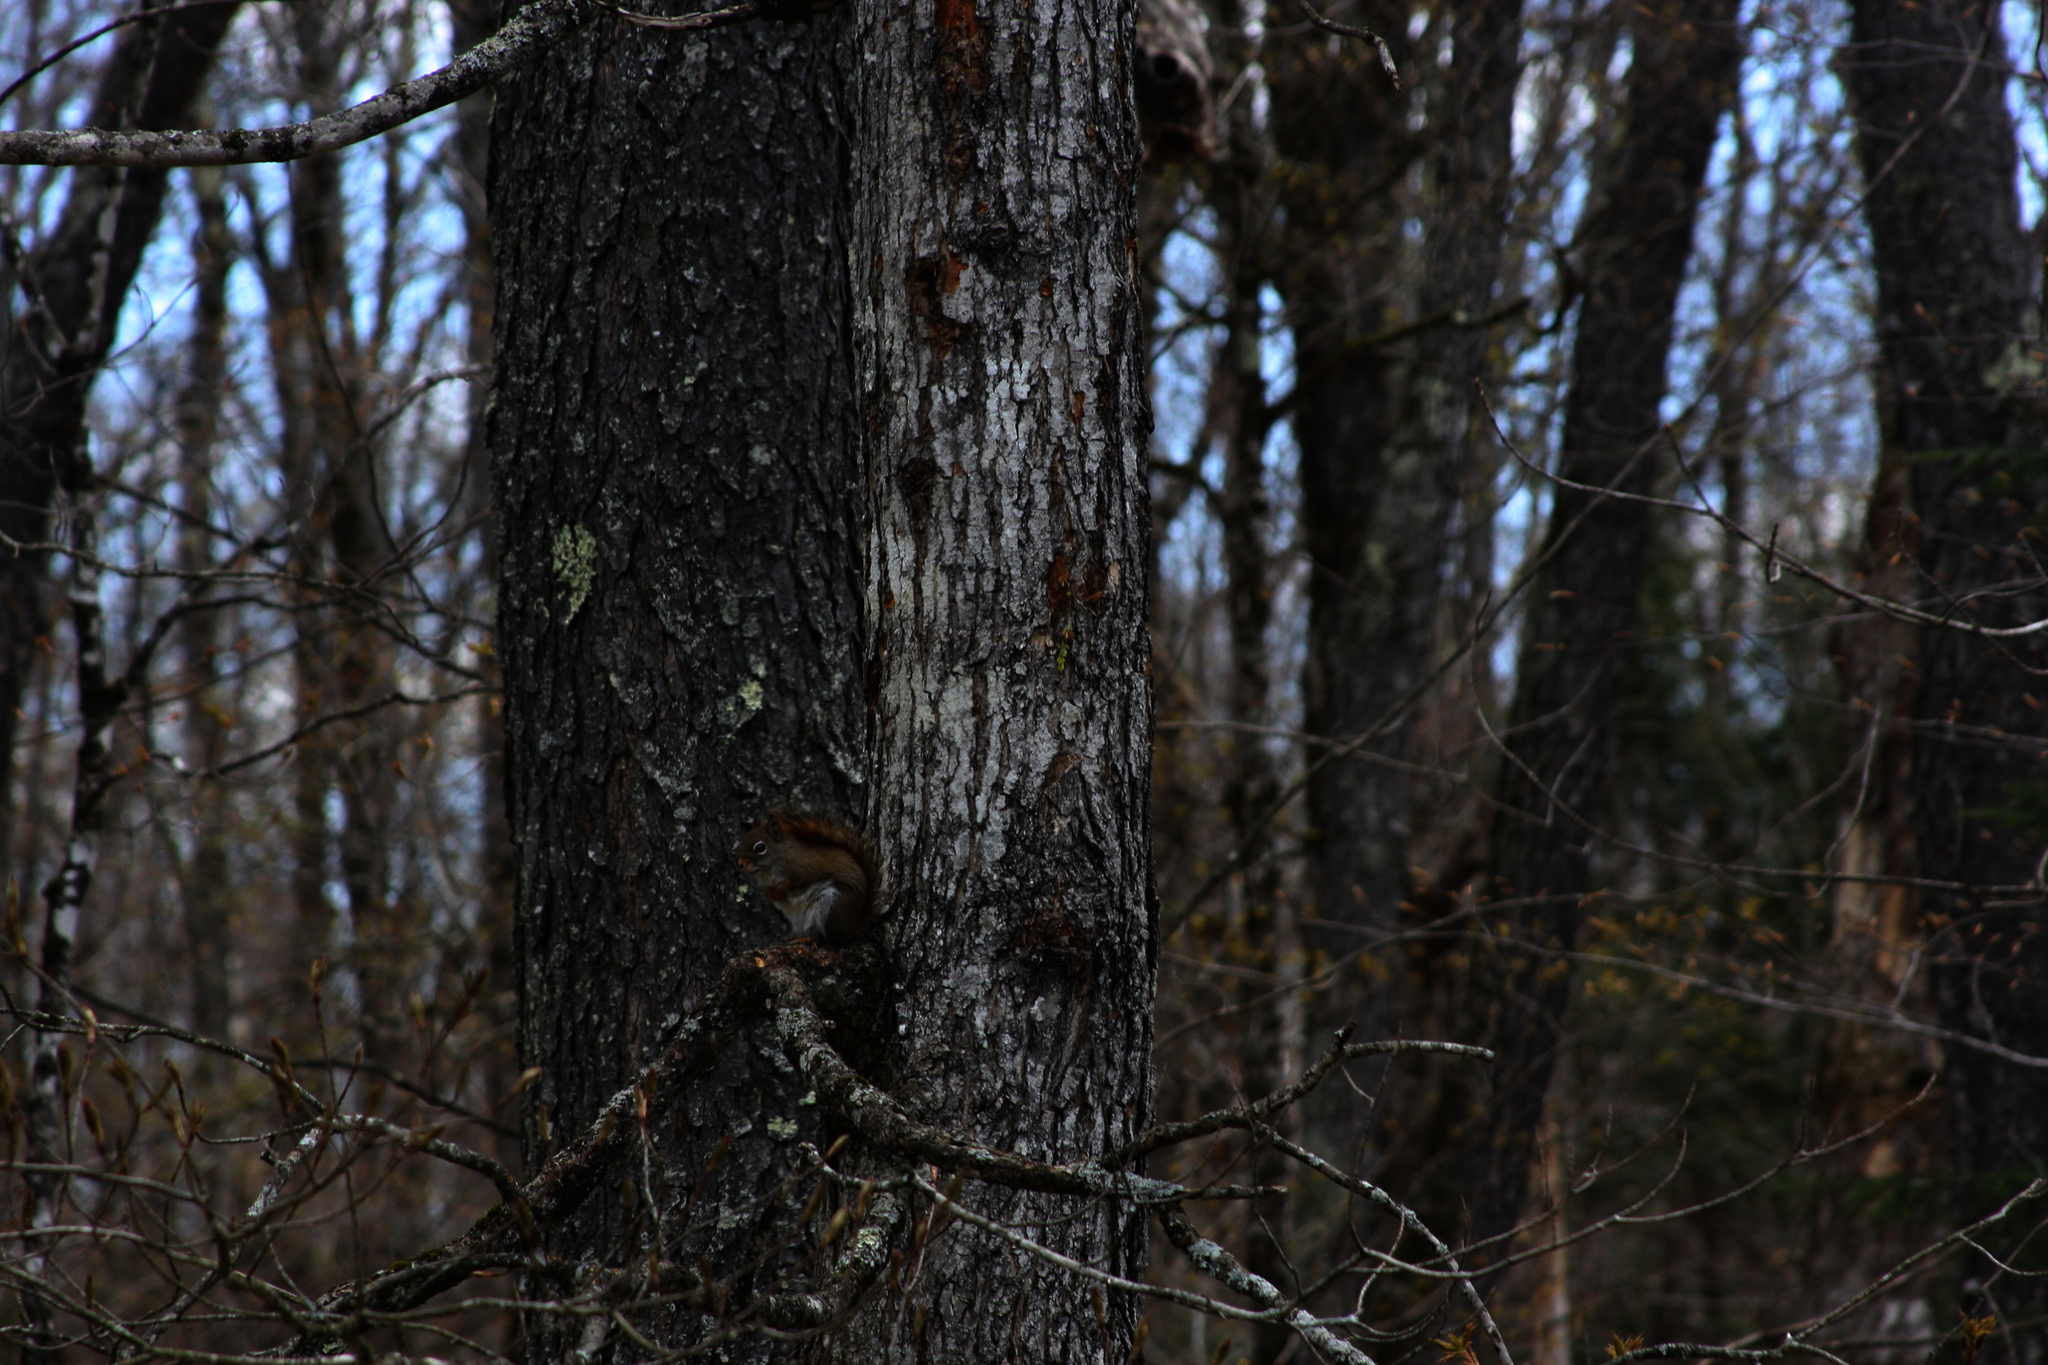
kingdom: Animalia
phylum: Chordata
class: Mammalia
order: Rodentia
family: Sciuridae
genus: Tamiasciurus
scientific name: Tamiasciurus hudsonicus
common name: Red squirrel
